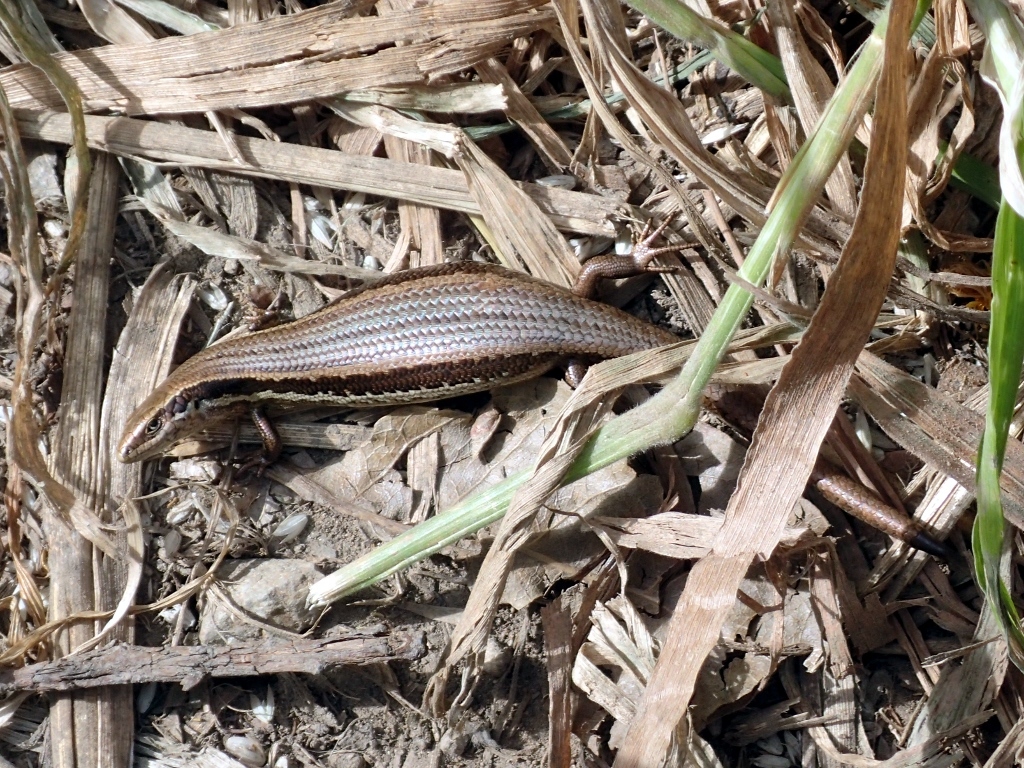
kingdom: Animalia
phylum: Chordata
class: Squamata
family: Scincidae
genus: Oligosoma
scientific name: Oligosoma polychroma
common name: Common new zealand skink
